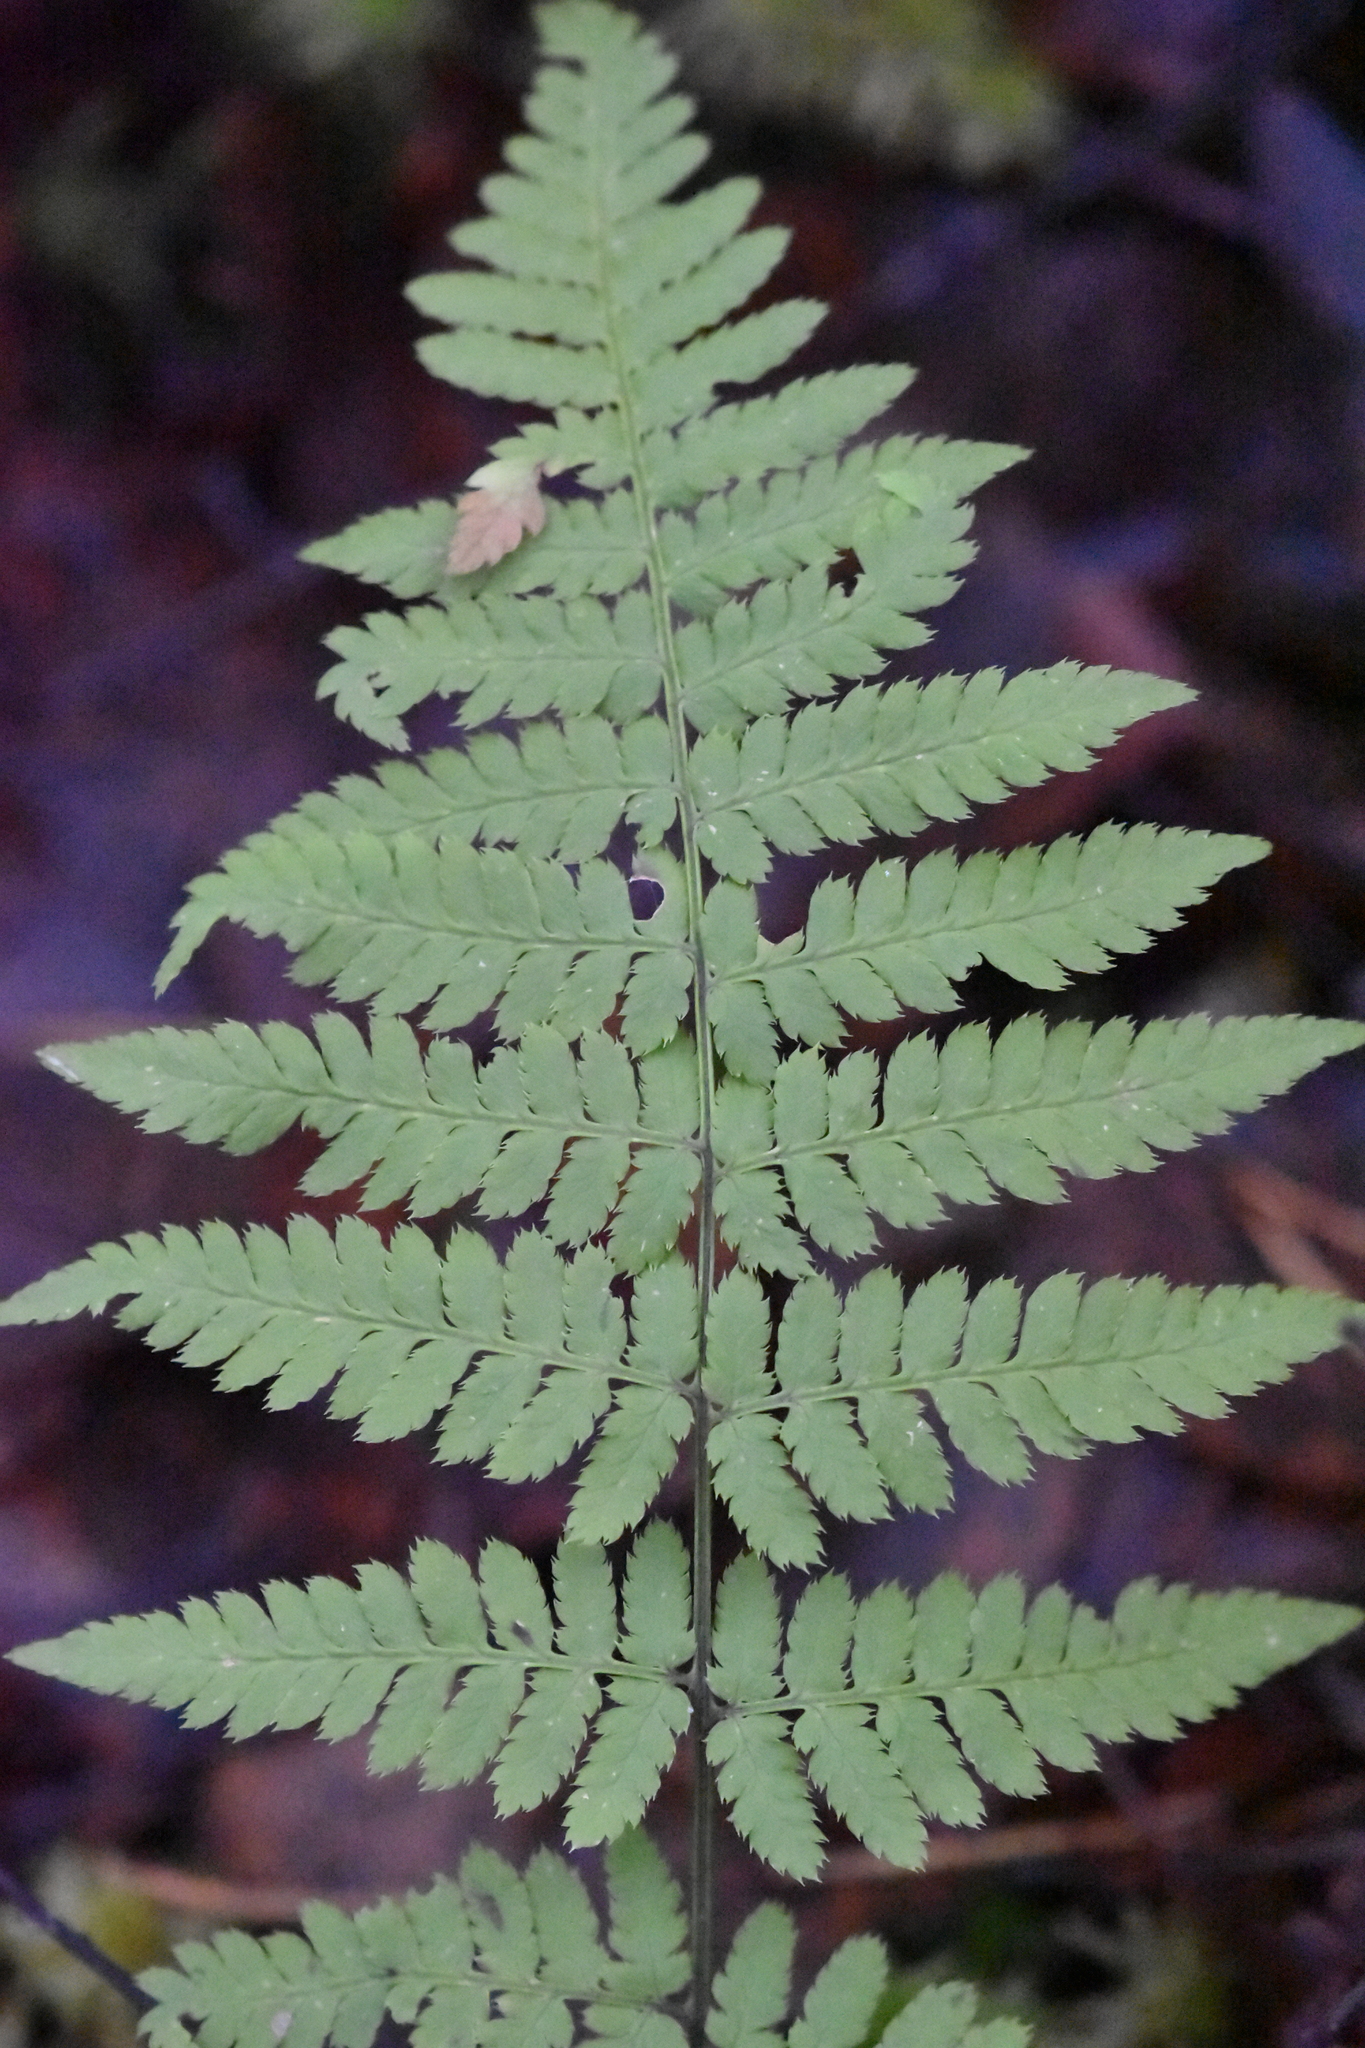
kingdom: Plantae
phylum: Tracheophyta
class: Polypodiopsida
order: Polypodiales
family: Dryopteridaceae
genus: Dryopteris
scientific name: Dryopteris carthusiana
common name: Narrow buckler-fern
